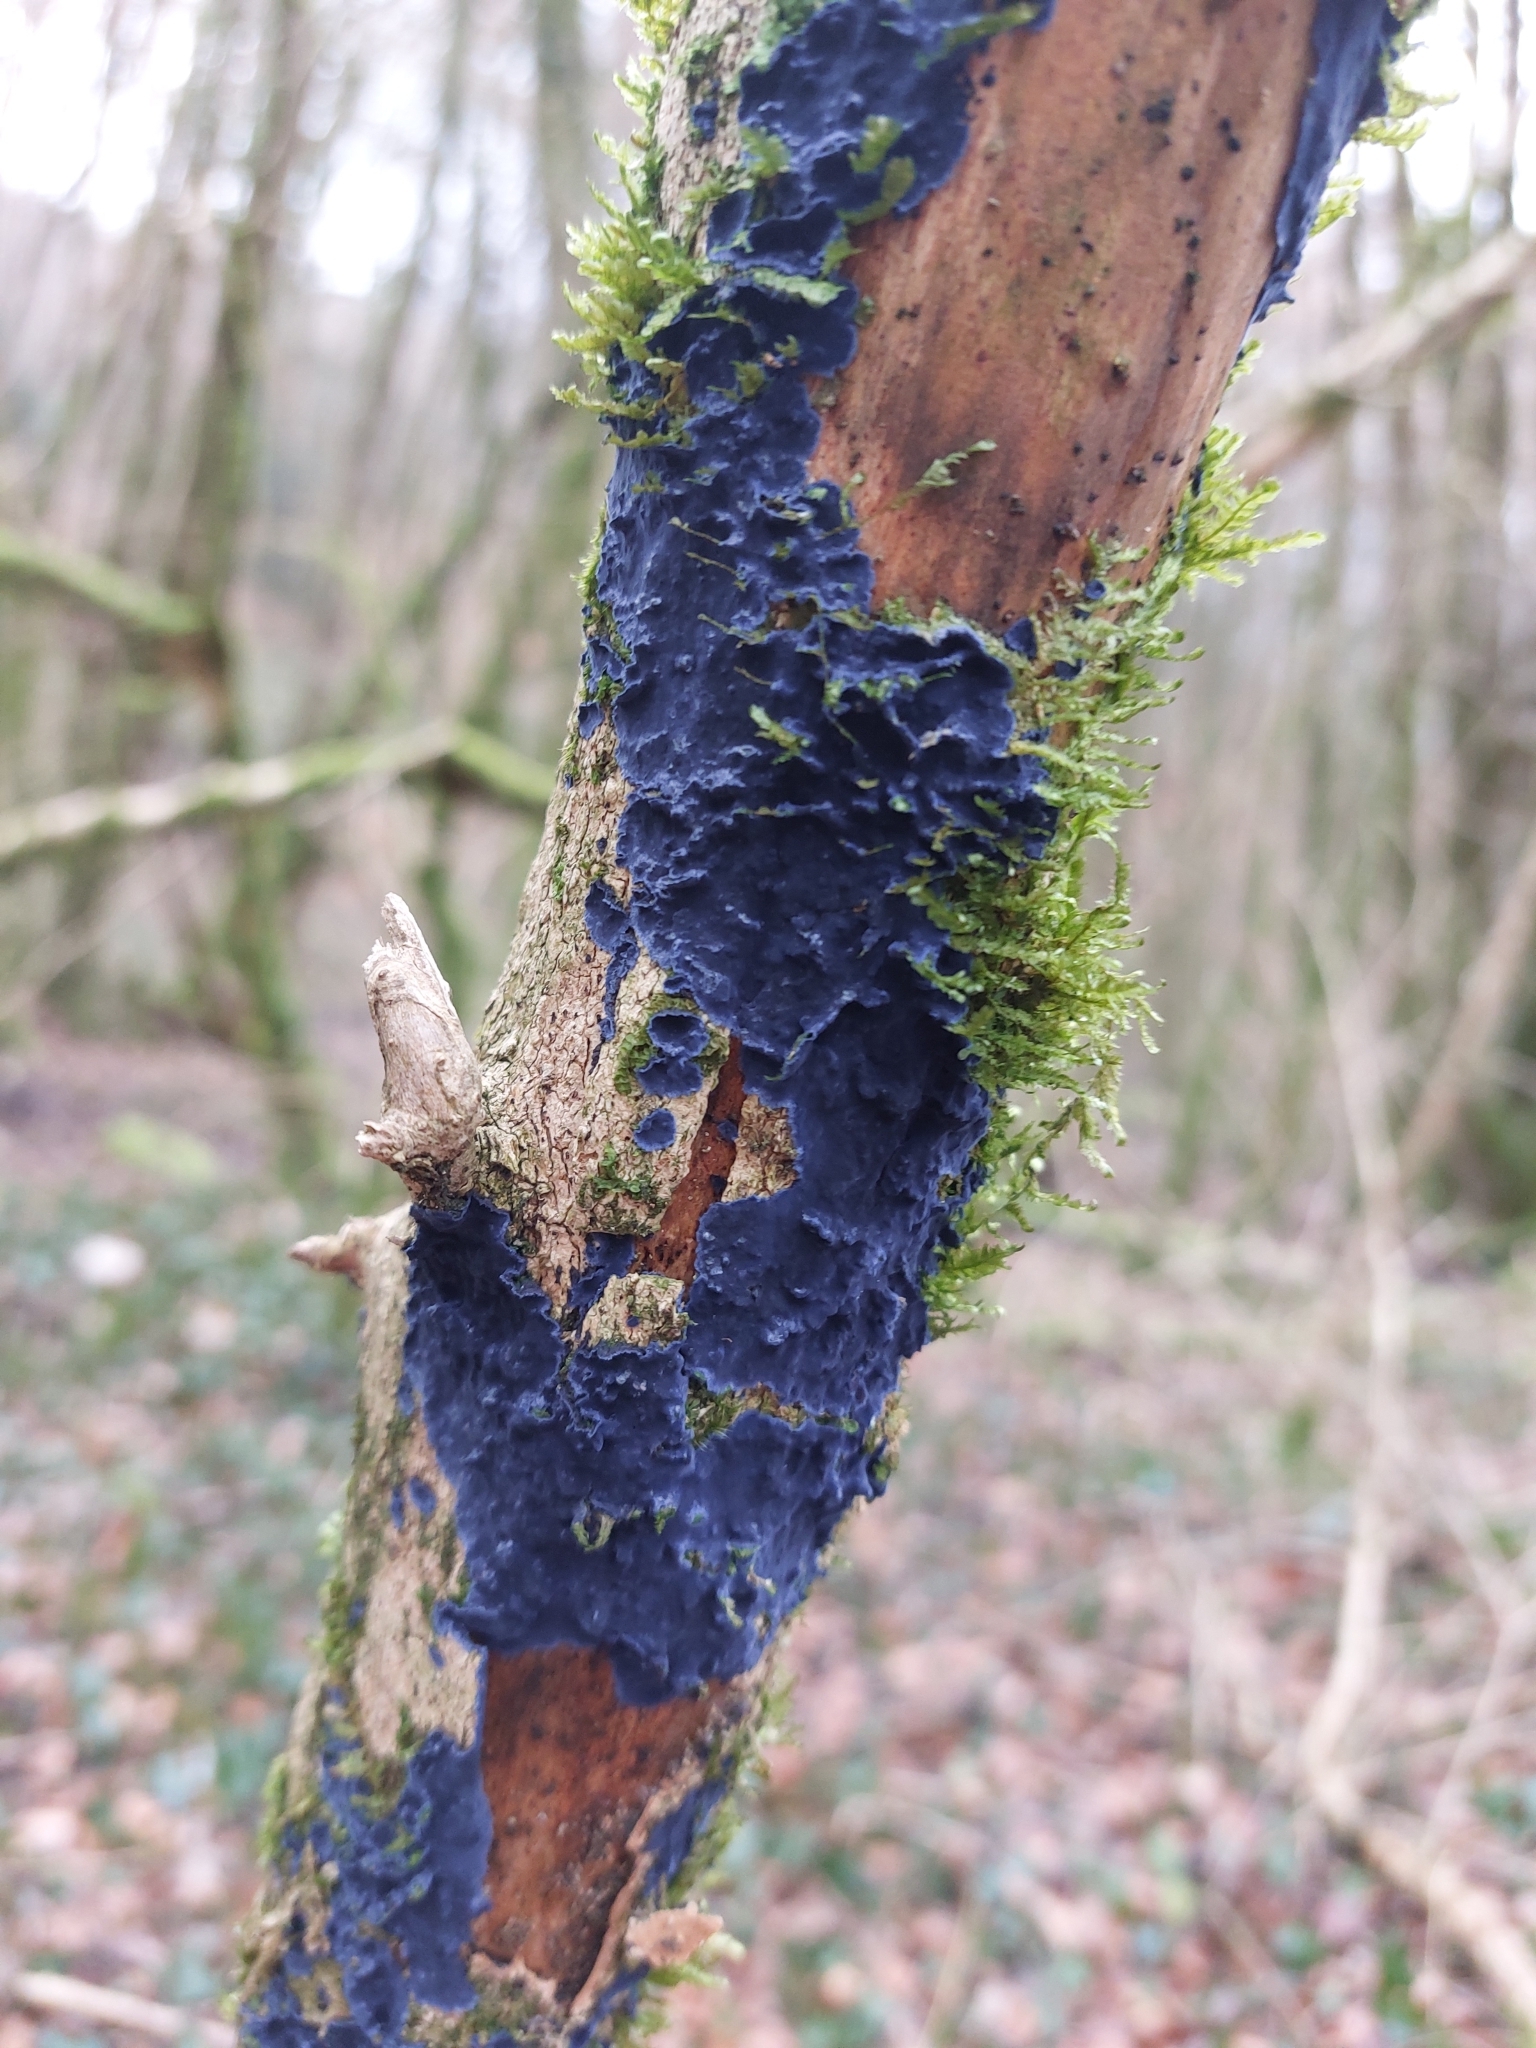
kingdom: Fungi
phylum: Basidiomycota
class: Agaricomycetes
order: Polyporales
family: Phanerochaetaceae
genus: Terana
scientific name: Terana coerulea
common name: Cobalt crust
